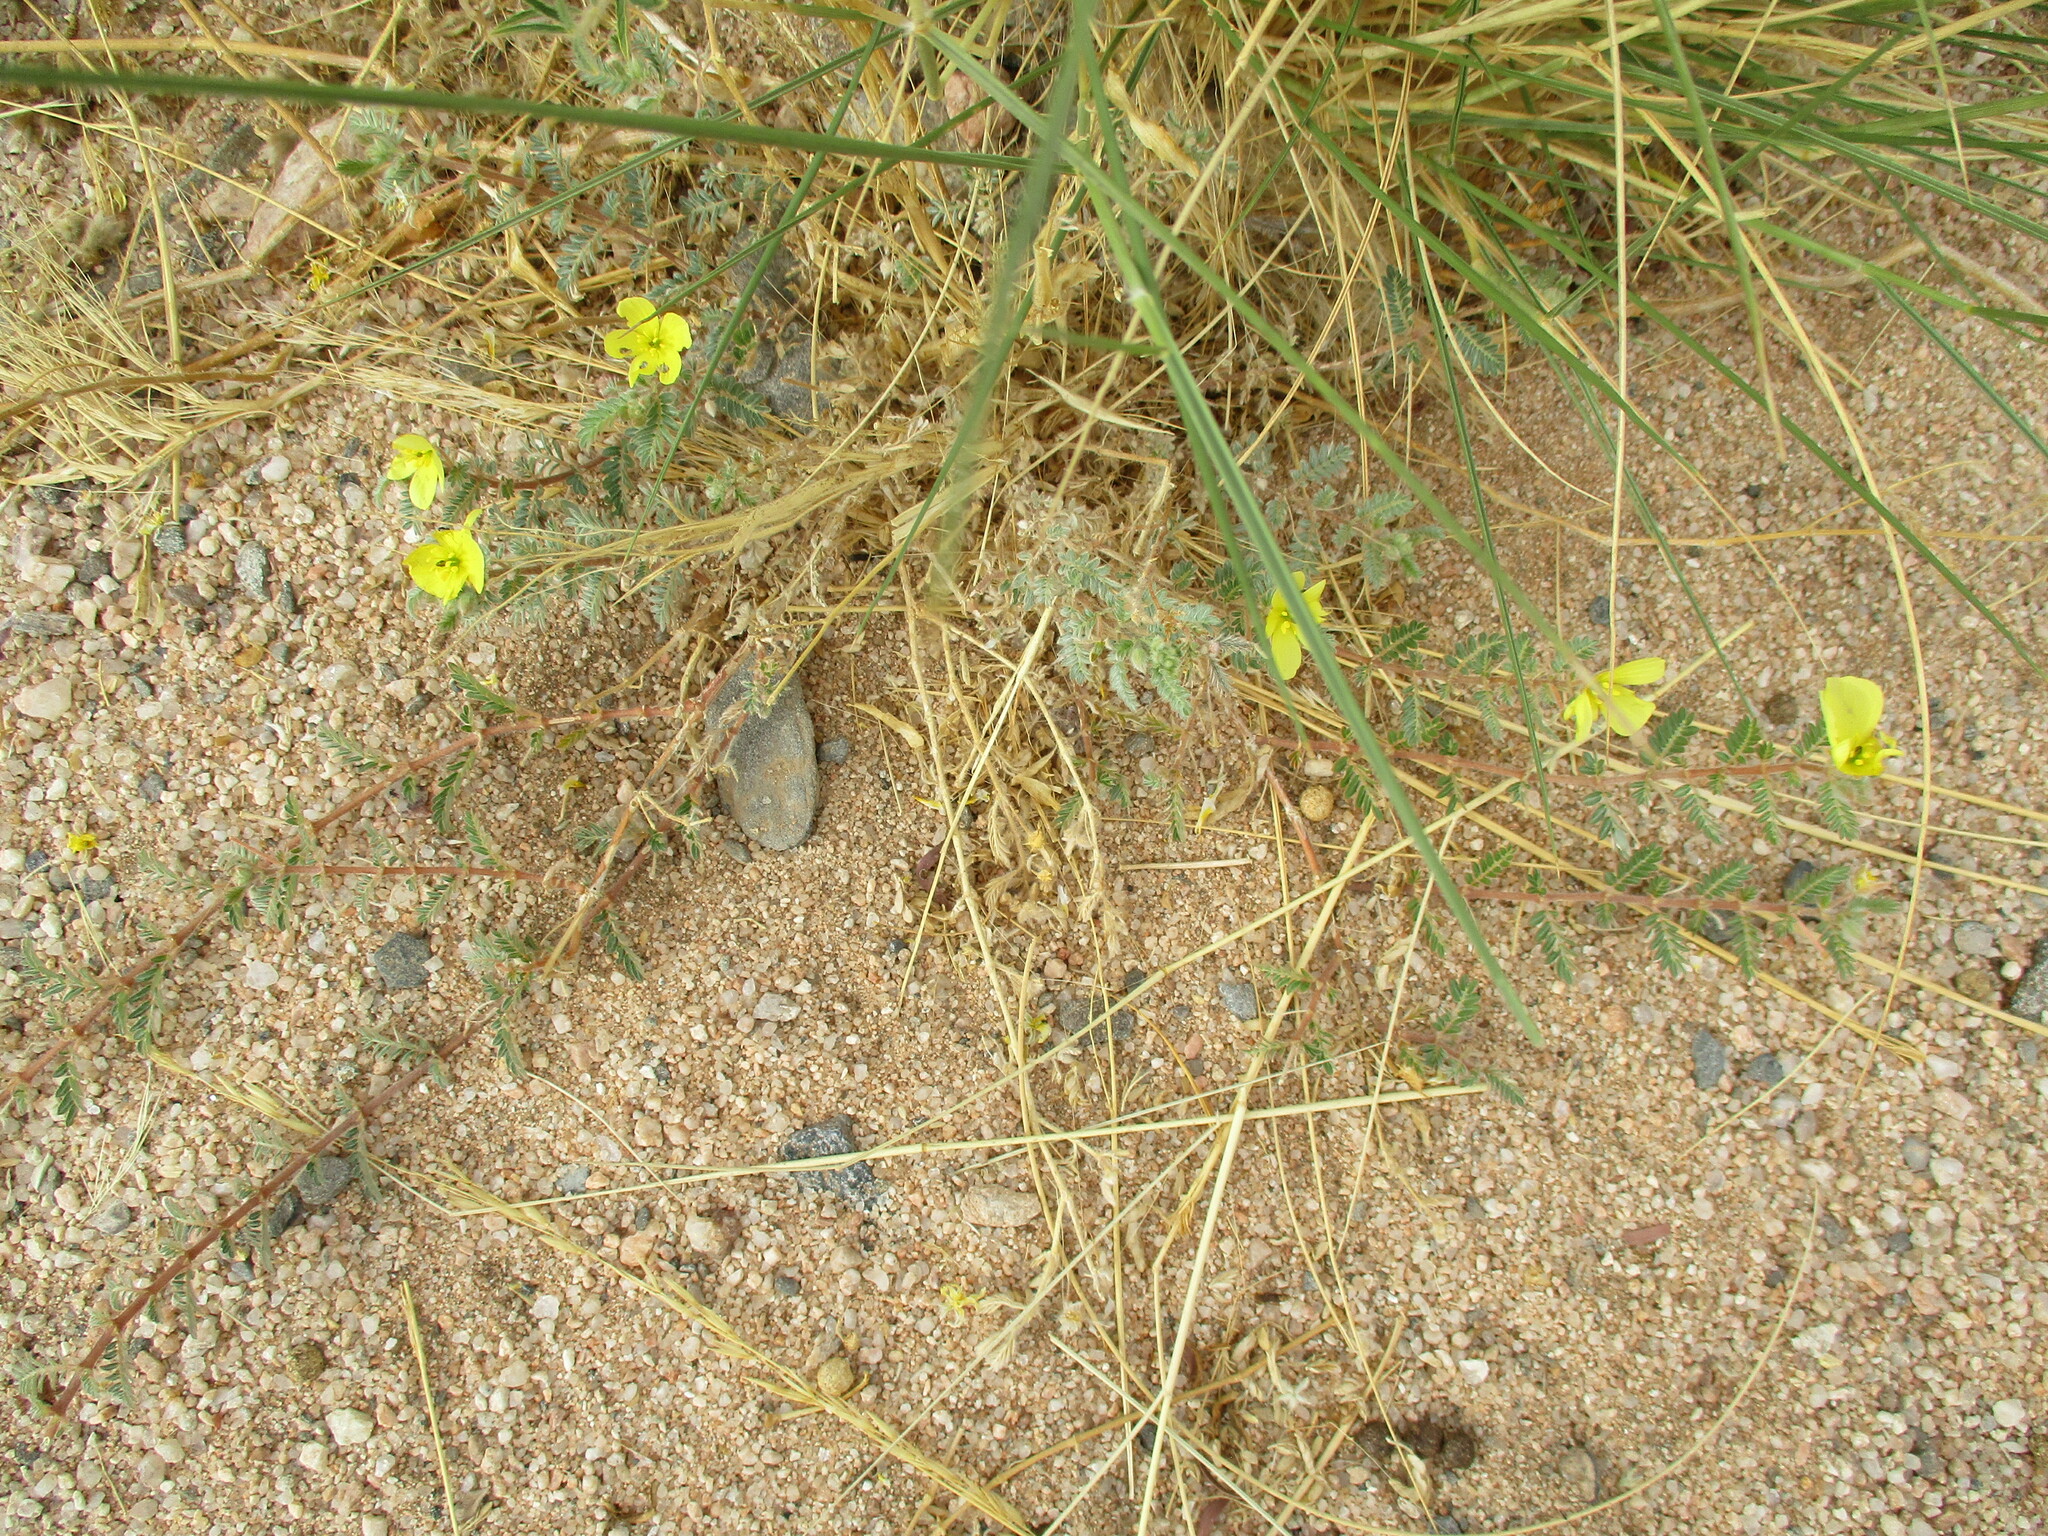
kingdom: Plantae
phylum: Tracheophyta
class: Magnoliopsida
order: Zygophyllales
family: Zygophyllaceae
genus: Tribulus
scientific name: Tribulus terrestris
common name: Puncturevine
